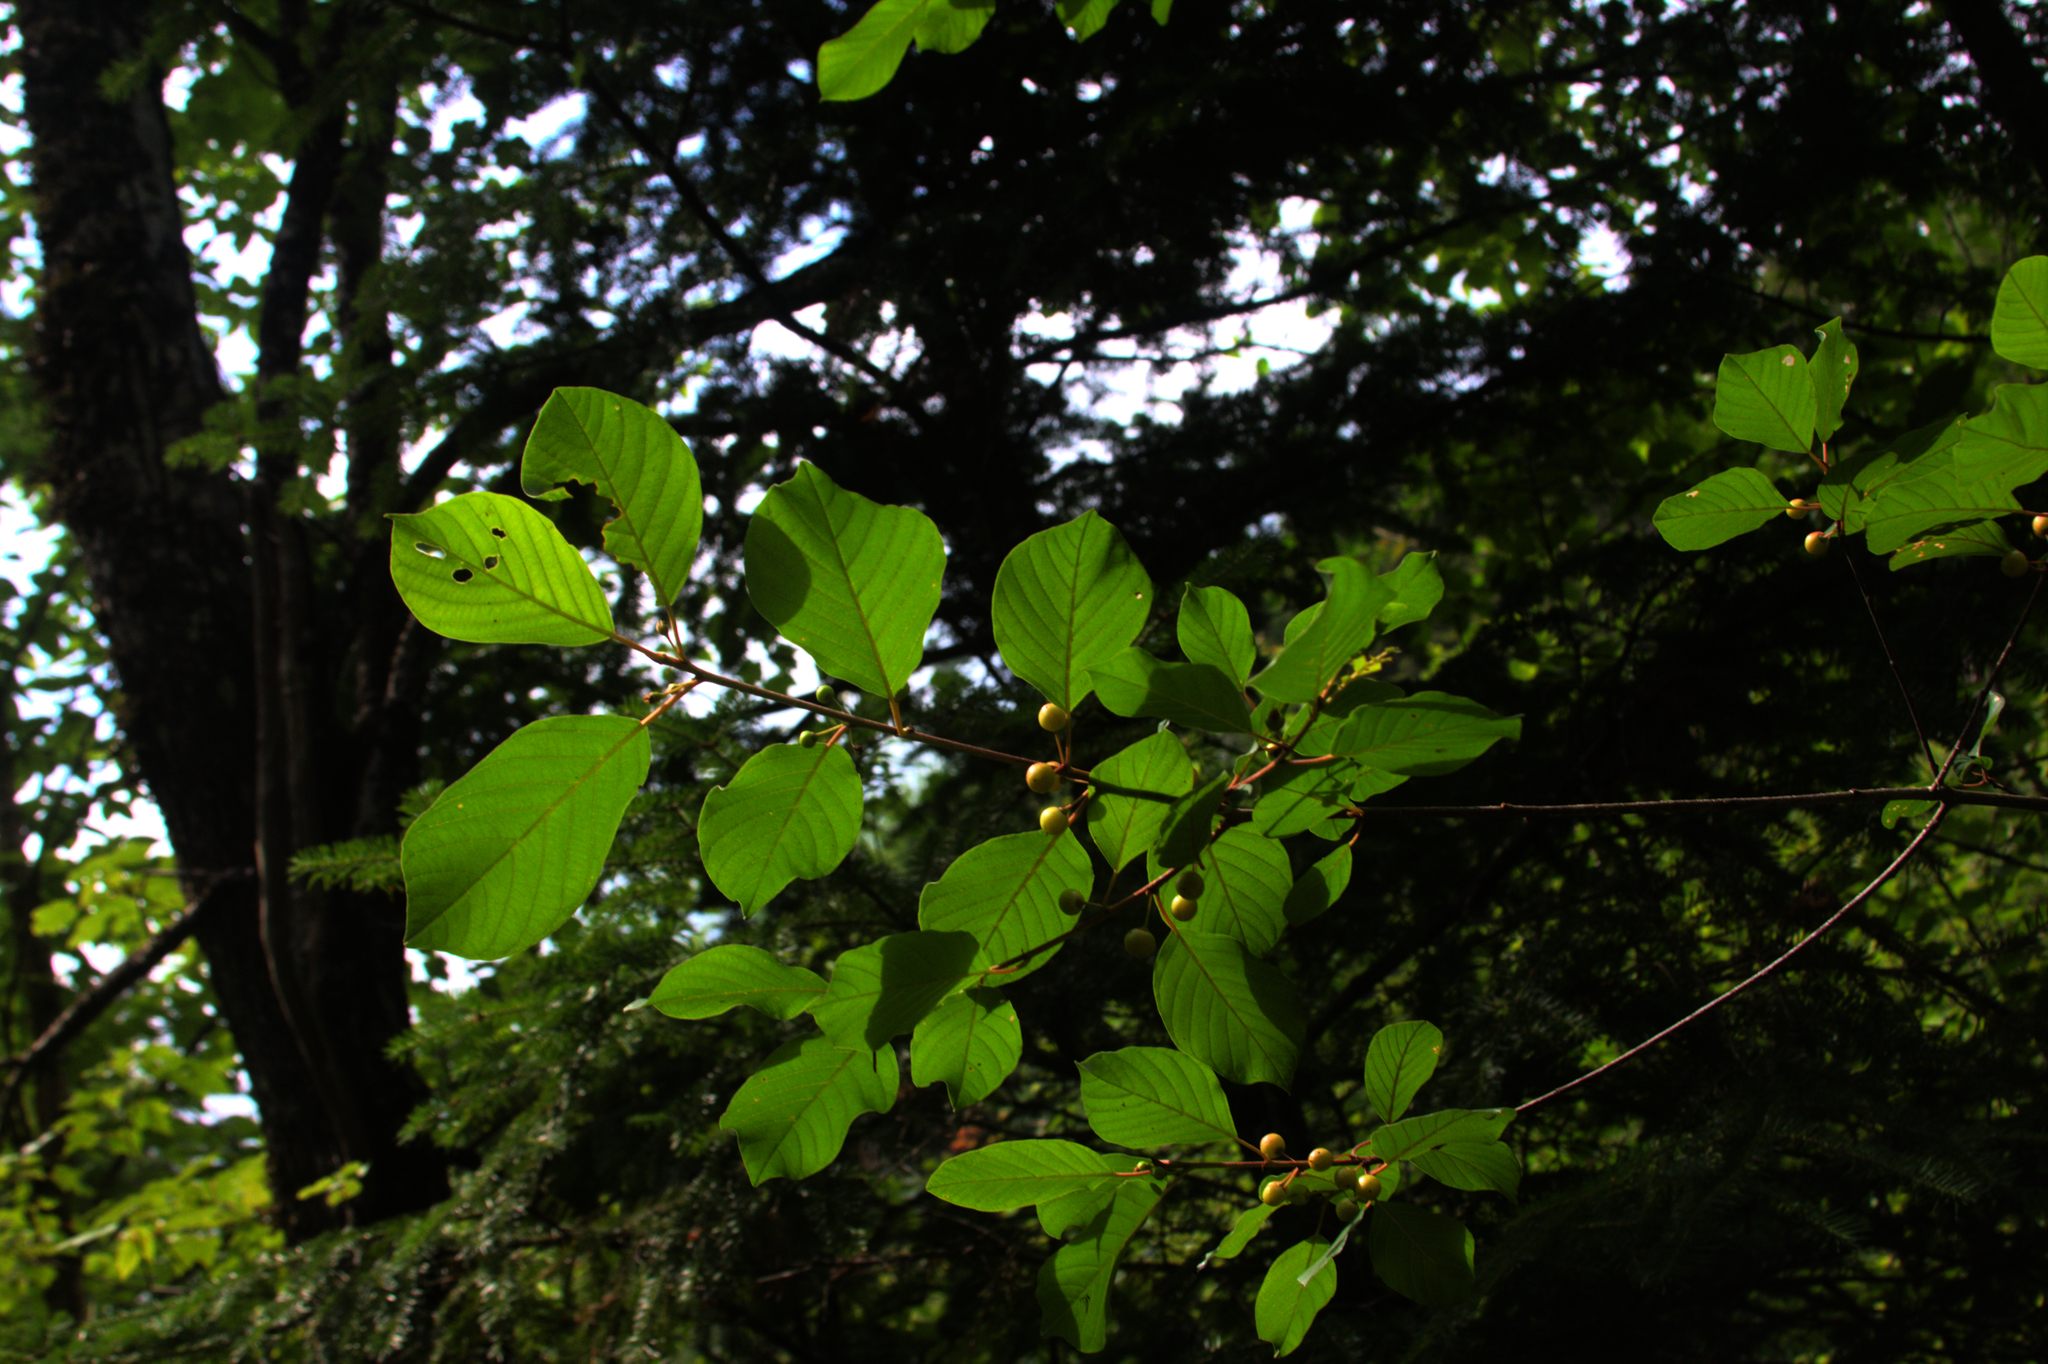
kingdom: Plantae
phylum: Tracheophyta
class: Magnoliopsida
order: Rosales
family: Rhamnaceae
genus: Frangula
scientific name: Frangula alnus
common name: Alder buckthorn
